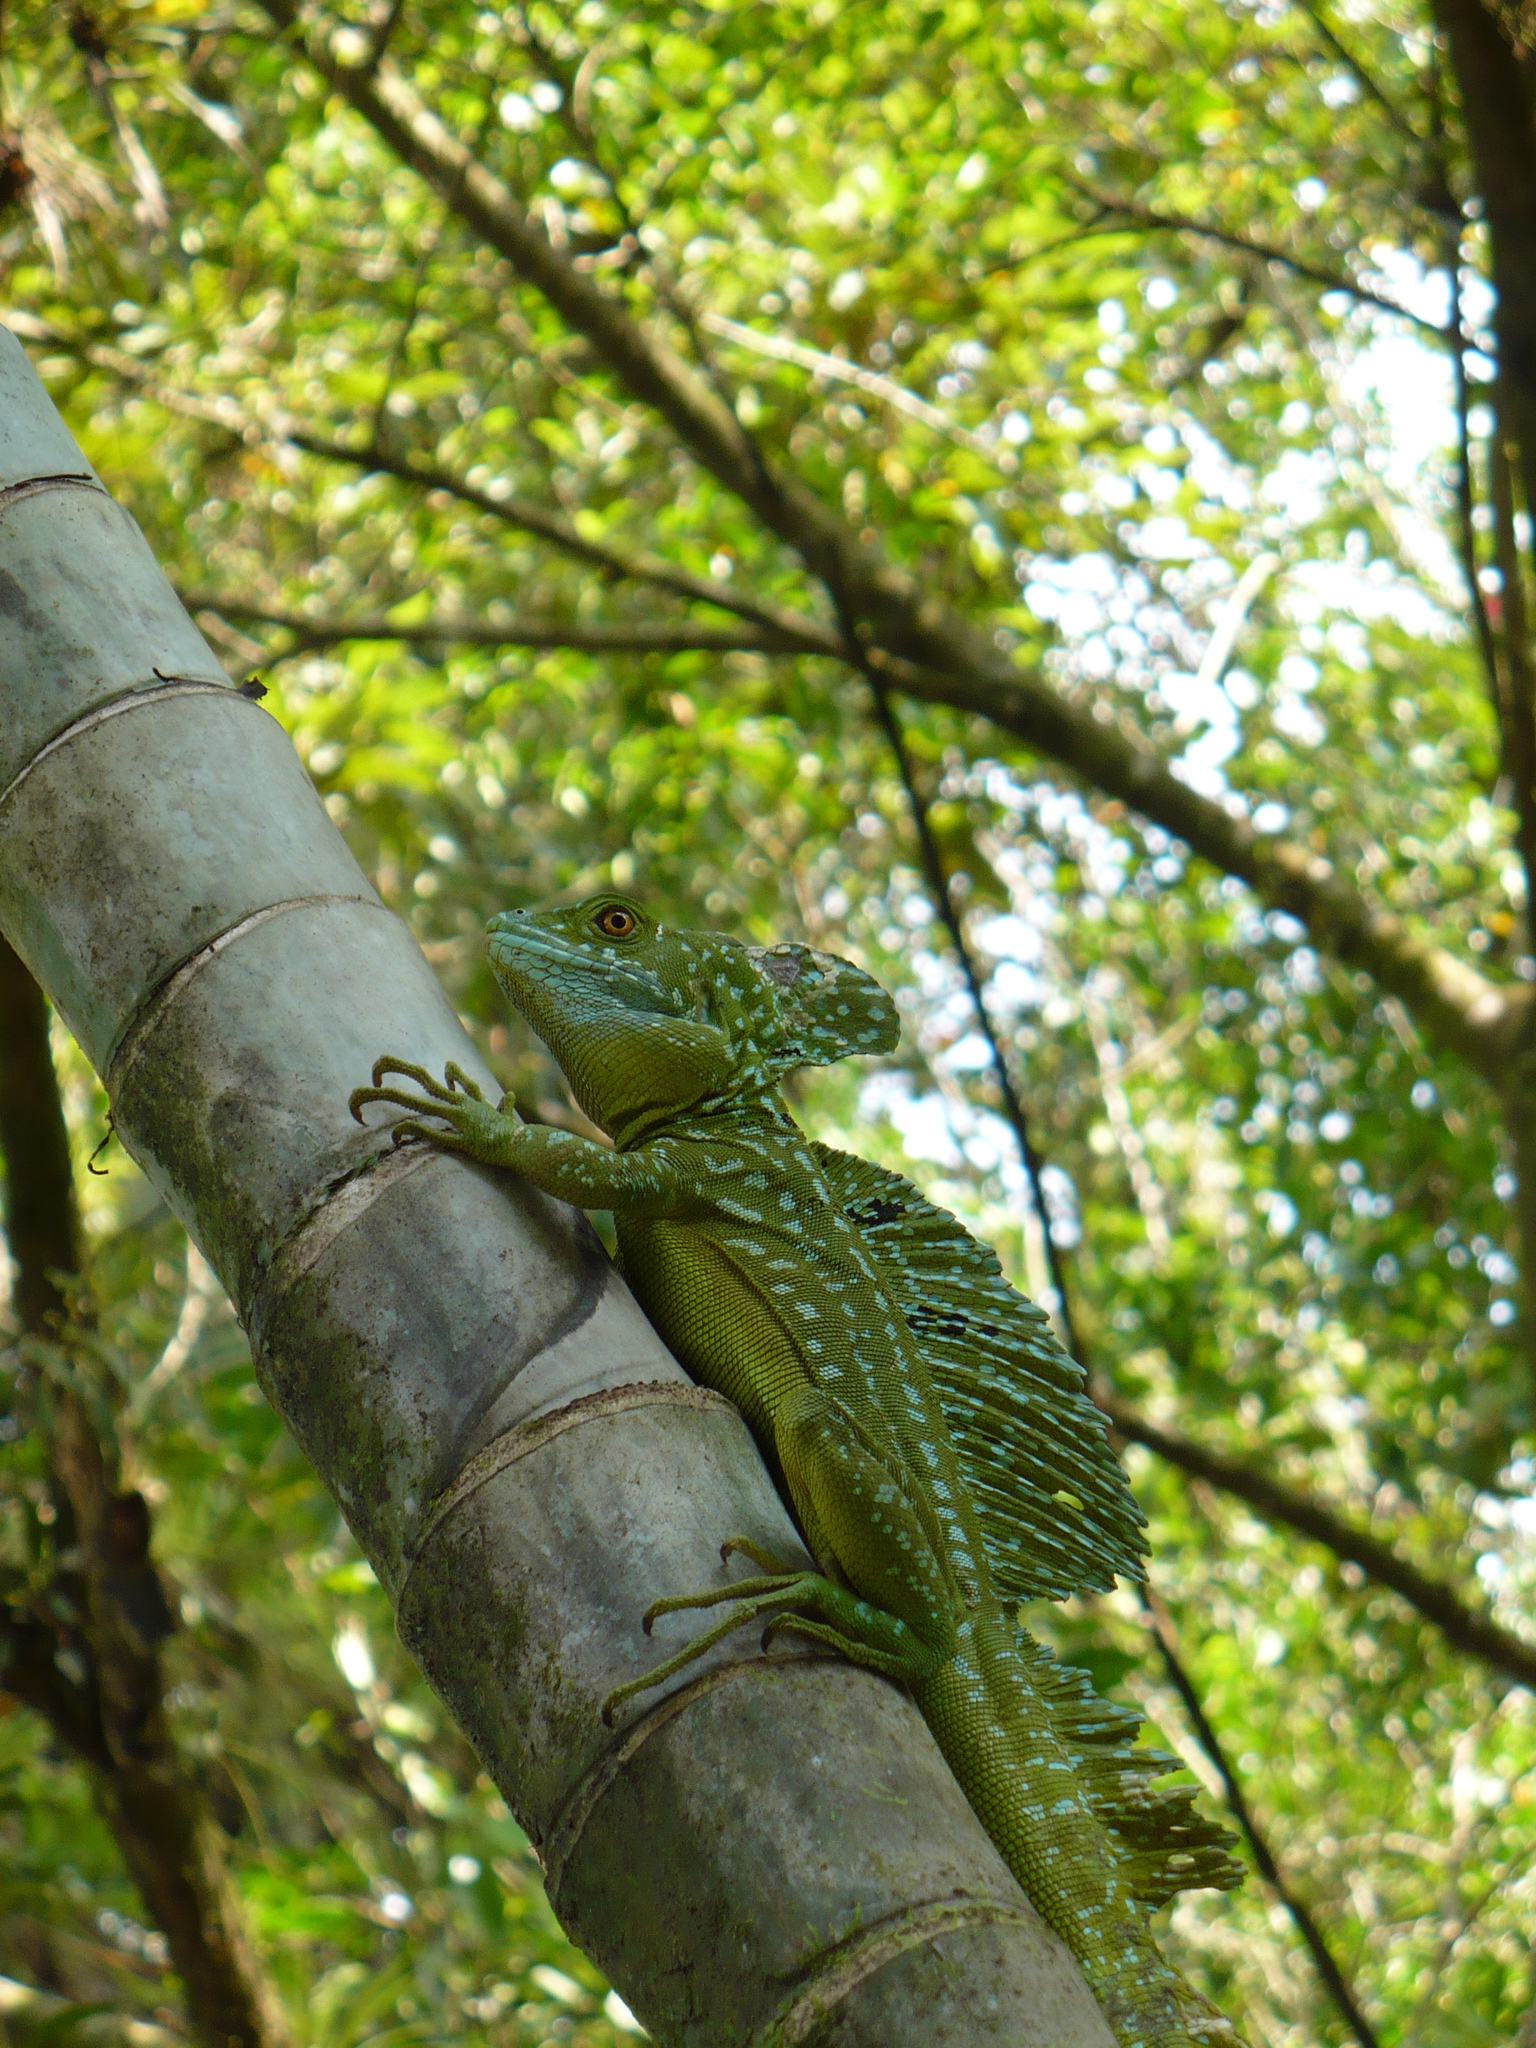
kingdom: Animalia
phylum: Chordata
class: Squamata
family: Corytophanidae
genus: Basiliscus
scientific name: Basiliscus plumifrons
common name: Green basilisk
